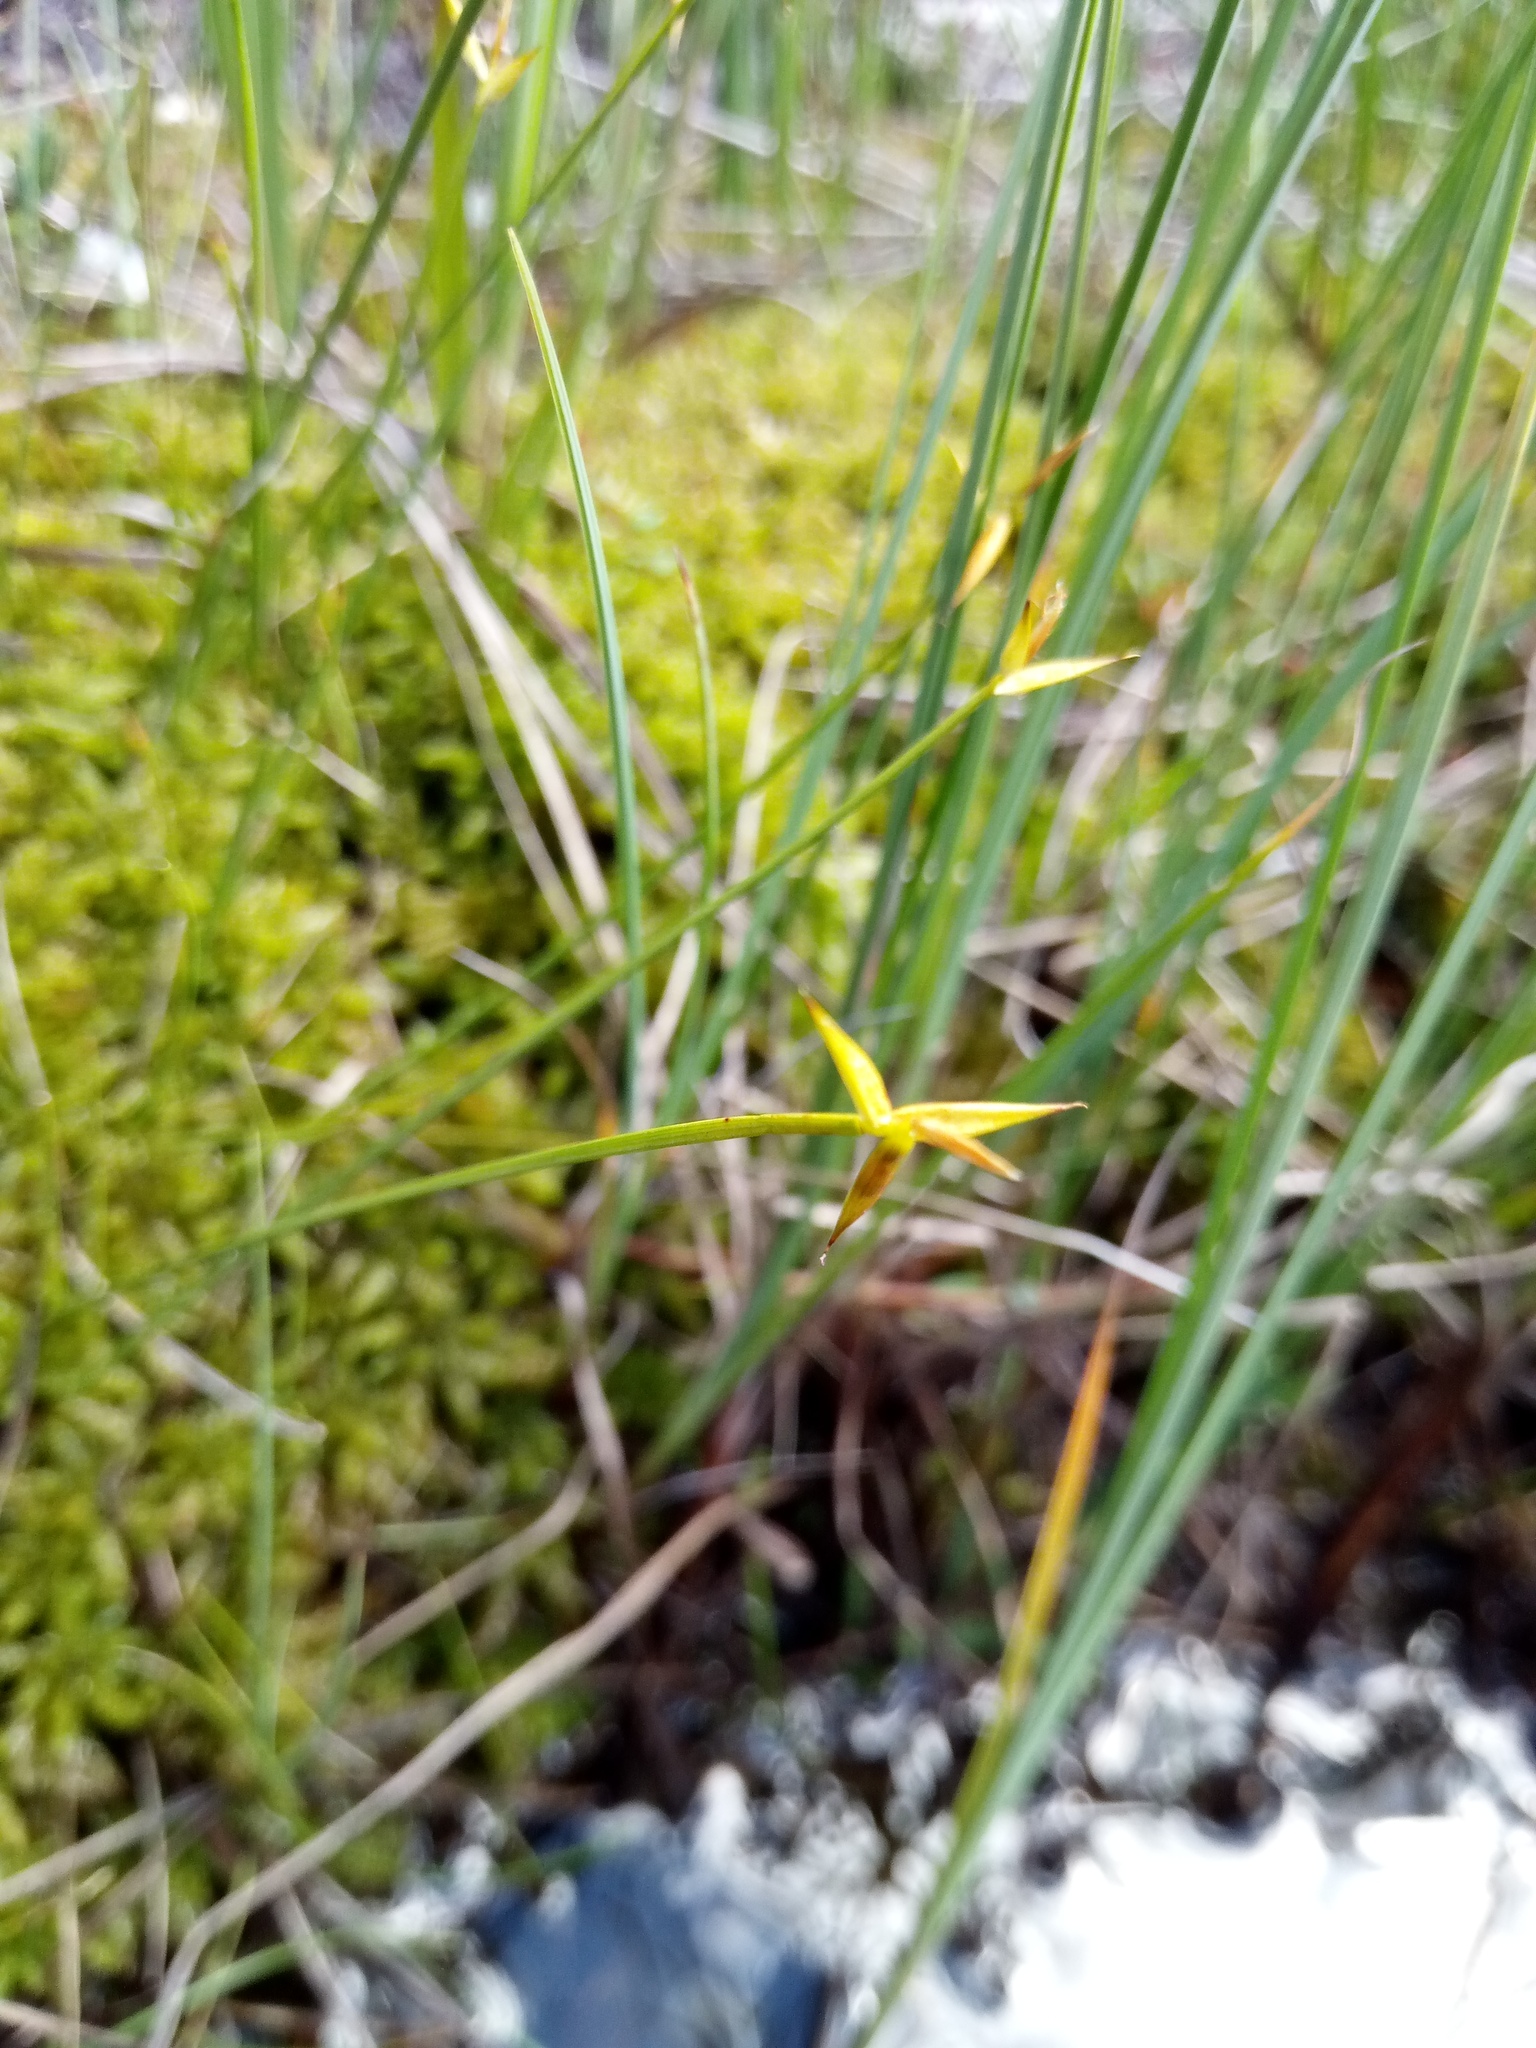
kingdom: Plantae
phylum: Tracheophyta
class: Liliopsida
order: Poales
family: Cyperaceae
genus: Carex
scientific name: Carex pauciflora
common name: Few-flowered sedge
